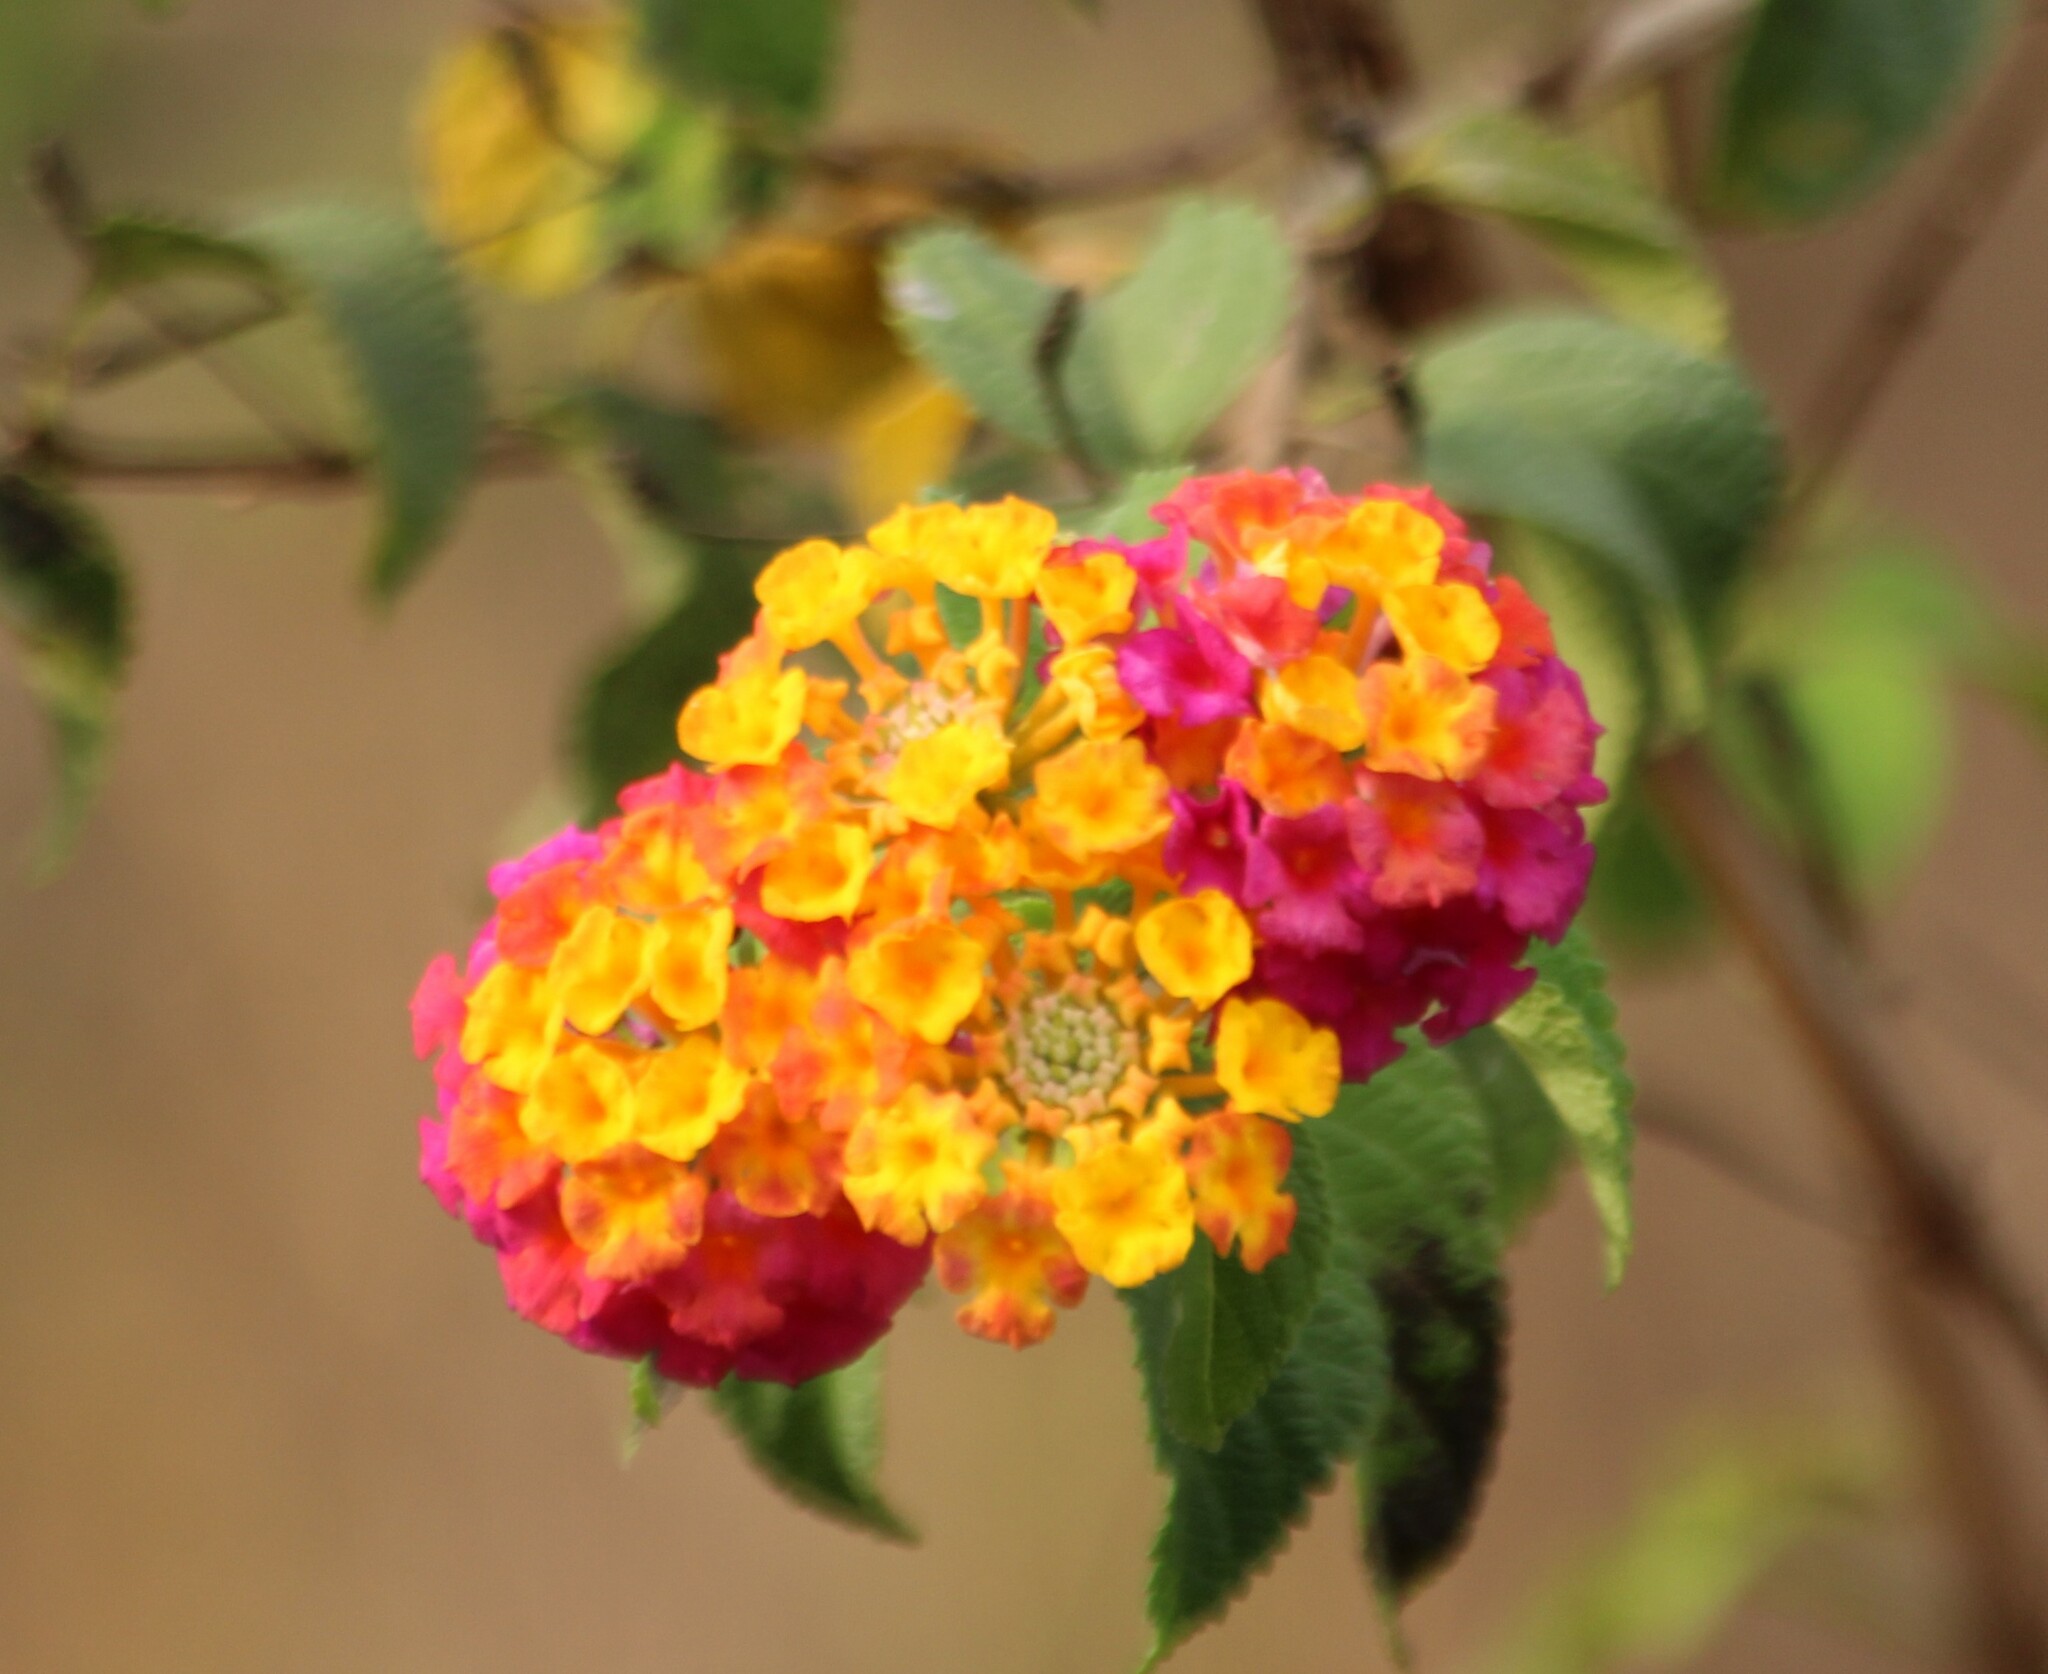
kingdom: Plantae
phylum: Tracheophyta
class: Magnoliopsida
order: Lamiales
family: Verbenaceae
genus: Lantana
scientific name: Lantana camara
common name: Lantana
